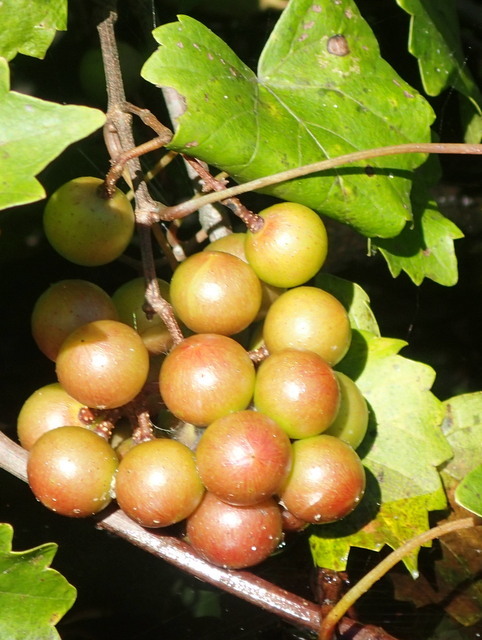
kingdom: Plantae
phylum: Tracheophyta
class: Magnoliopsida
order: Vitales
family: Vitaceae
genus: Vitis
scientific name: Vitis rotundifolia
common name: Muscadine grape
